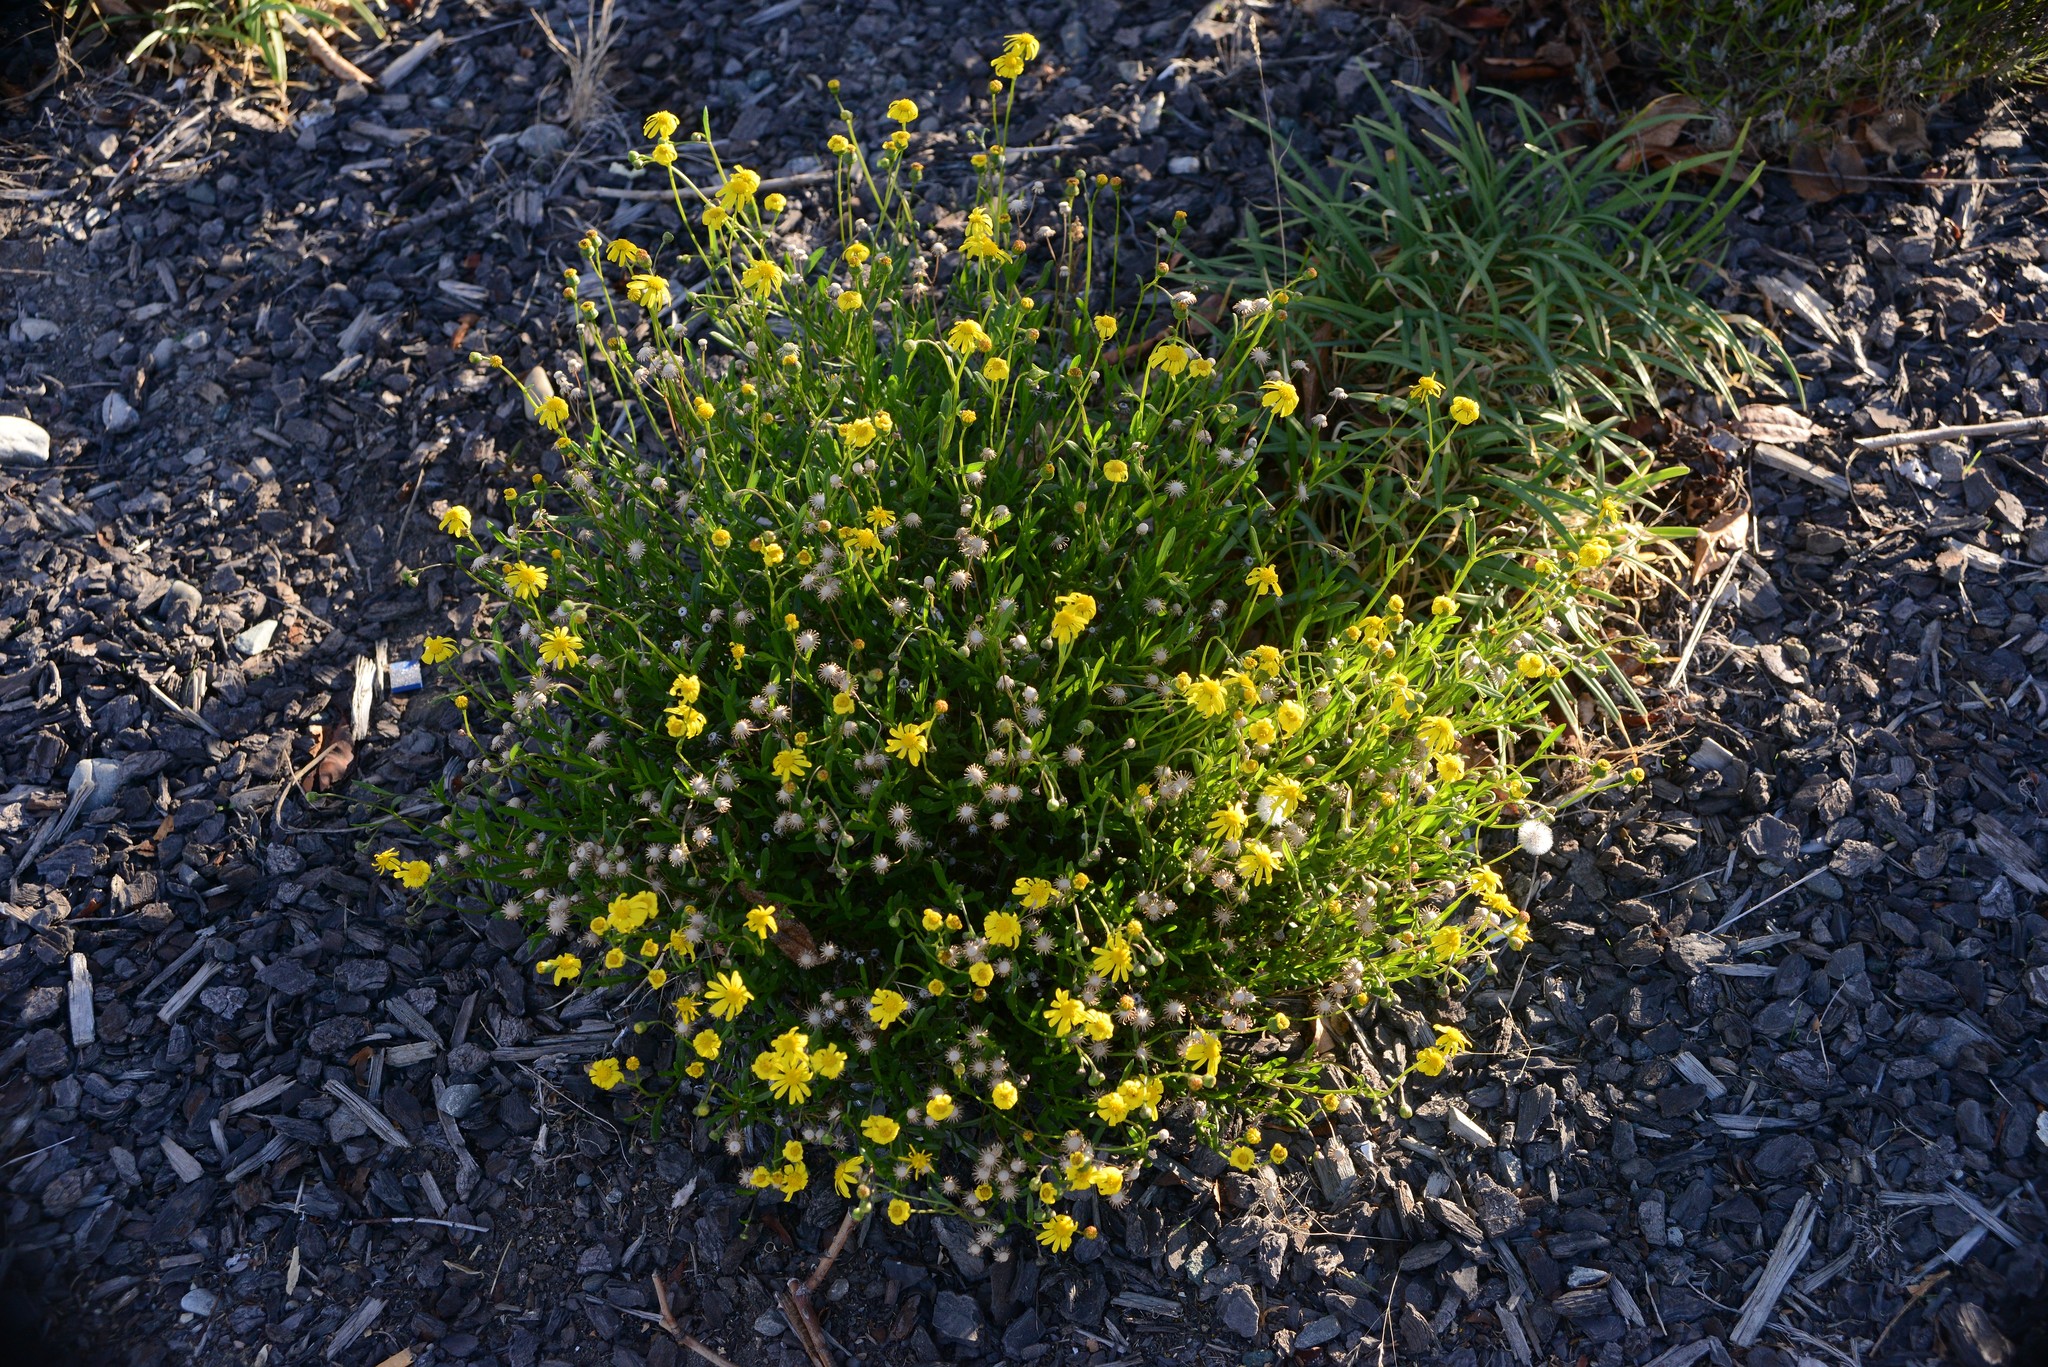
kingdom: Plantae
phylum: Tracheophyta
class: Magnoliopsida
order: Asterales
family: Asteraceae
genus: Senecio
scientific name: Senecio skirrhodon
